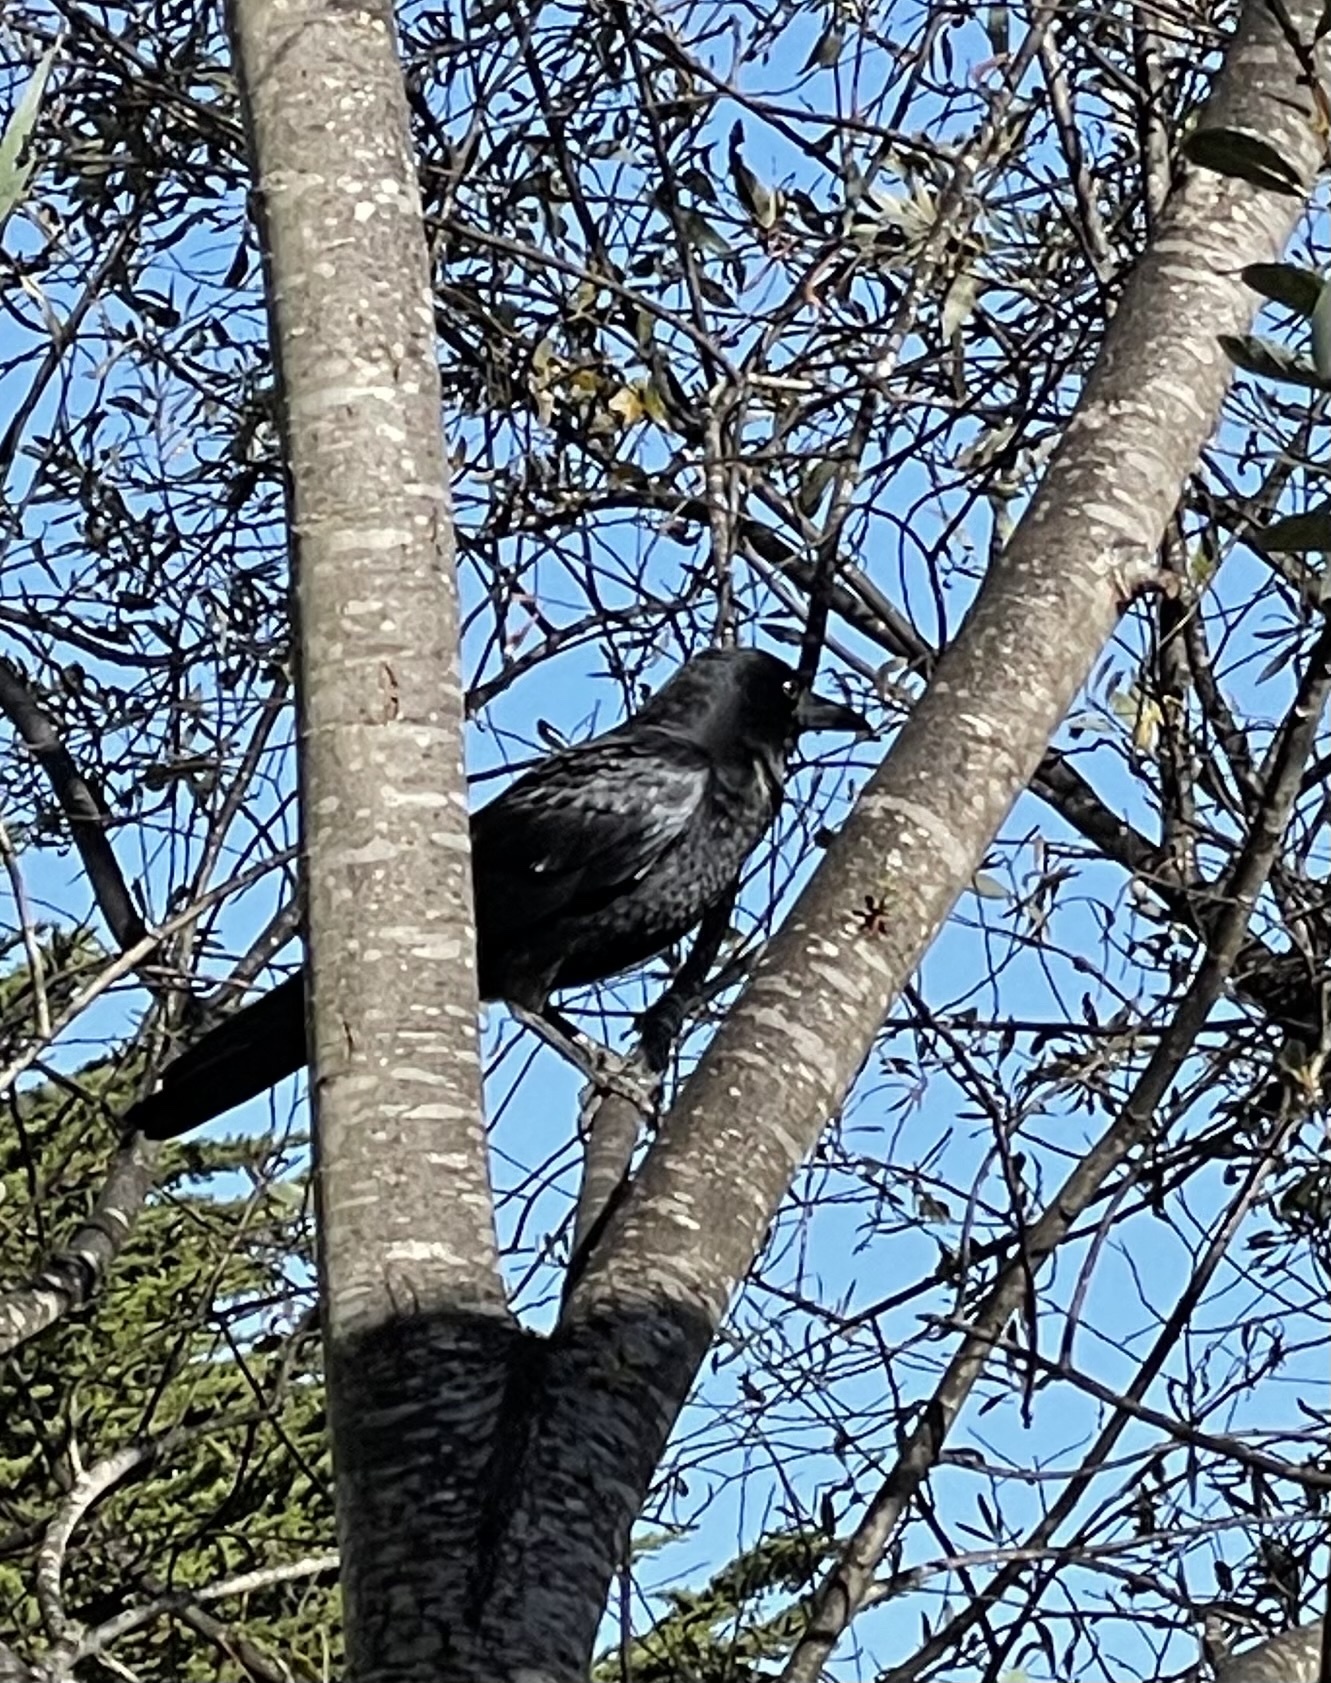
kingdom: Animalia
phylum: Chordata
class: Aves
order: Passeriformes
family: Corvidae
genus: Corvus
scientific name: Corvus brachyrhynchos
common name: American crow
